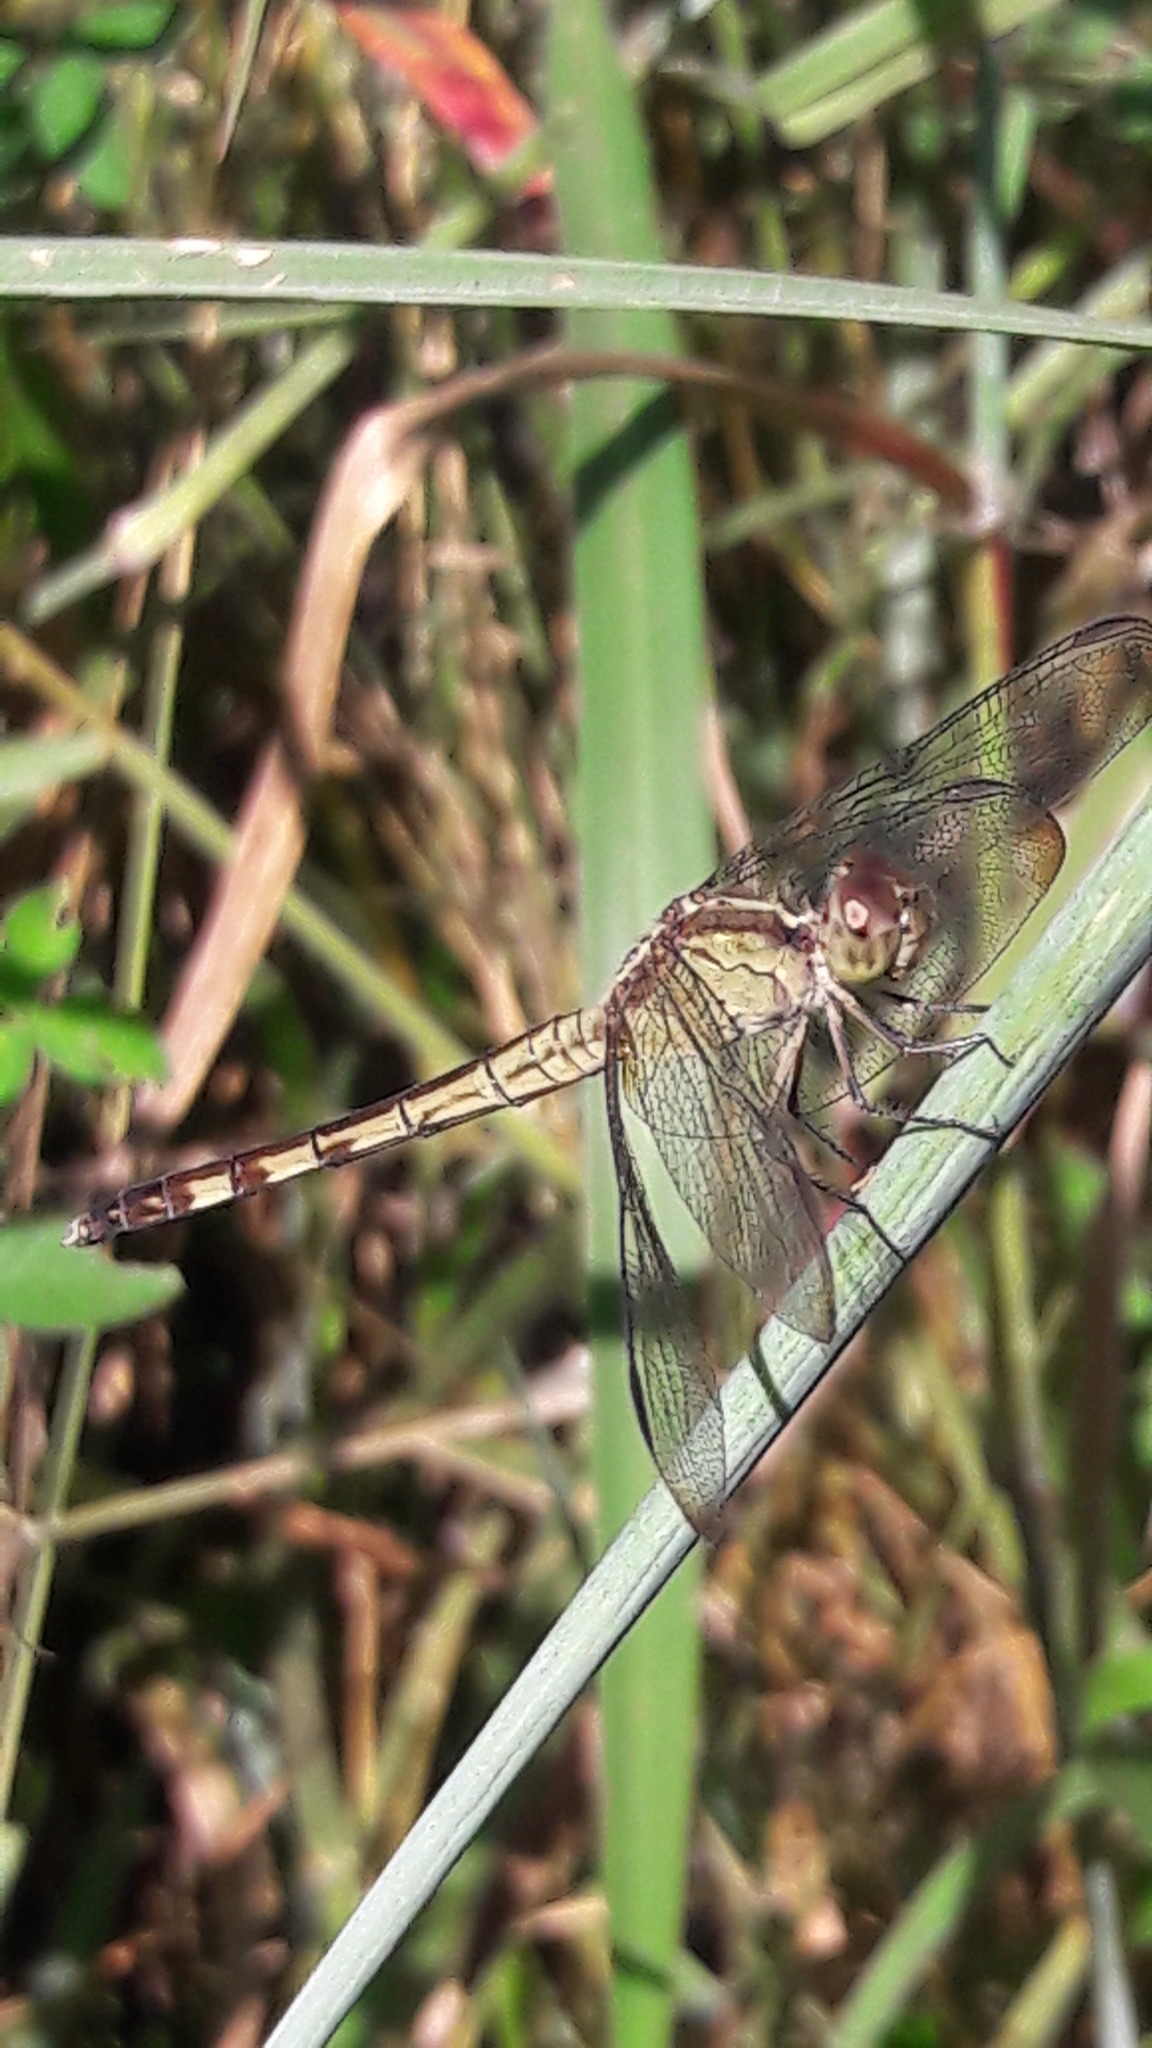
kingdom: Animalia
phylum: Arthropoda
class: Insecta
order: Odonata
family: Libellulidae
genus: Erythrodiplax
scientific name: Erythrodiplax umbrata
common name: Band-winged dragonlet
